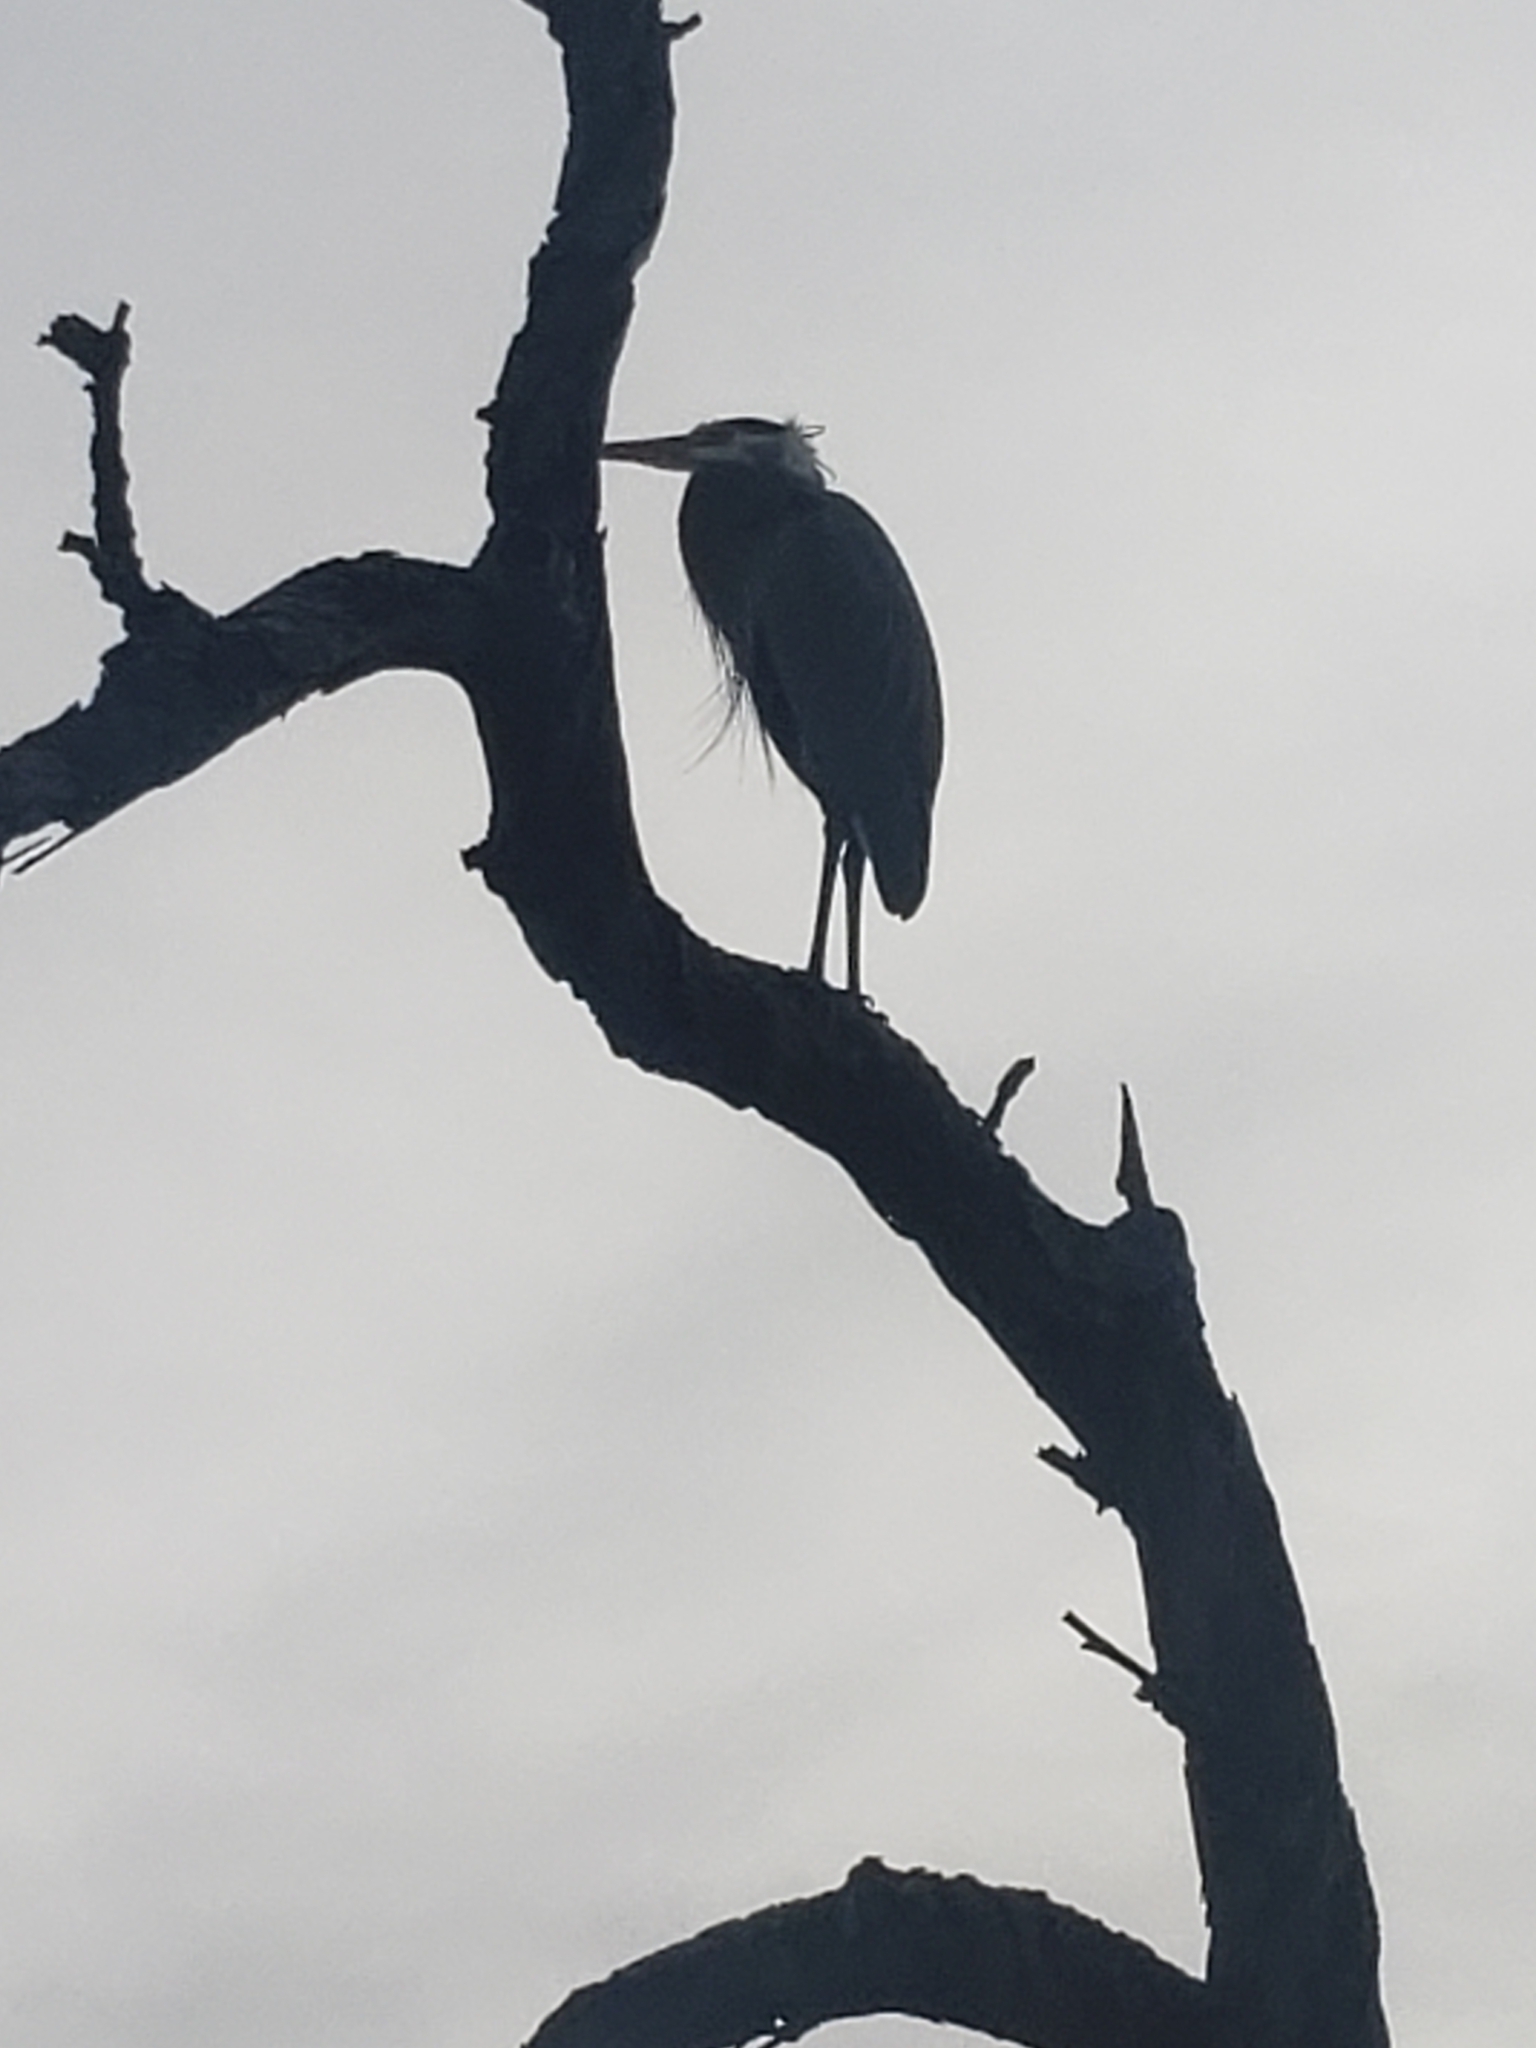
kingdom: Animalia
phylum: Chordata
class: Aves
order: Pelecaniformes
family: Ardeidae
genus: Ardea
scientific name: Ardea herodias
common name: Great blue heron
